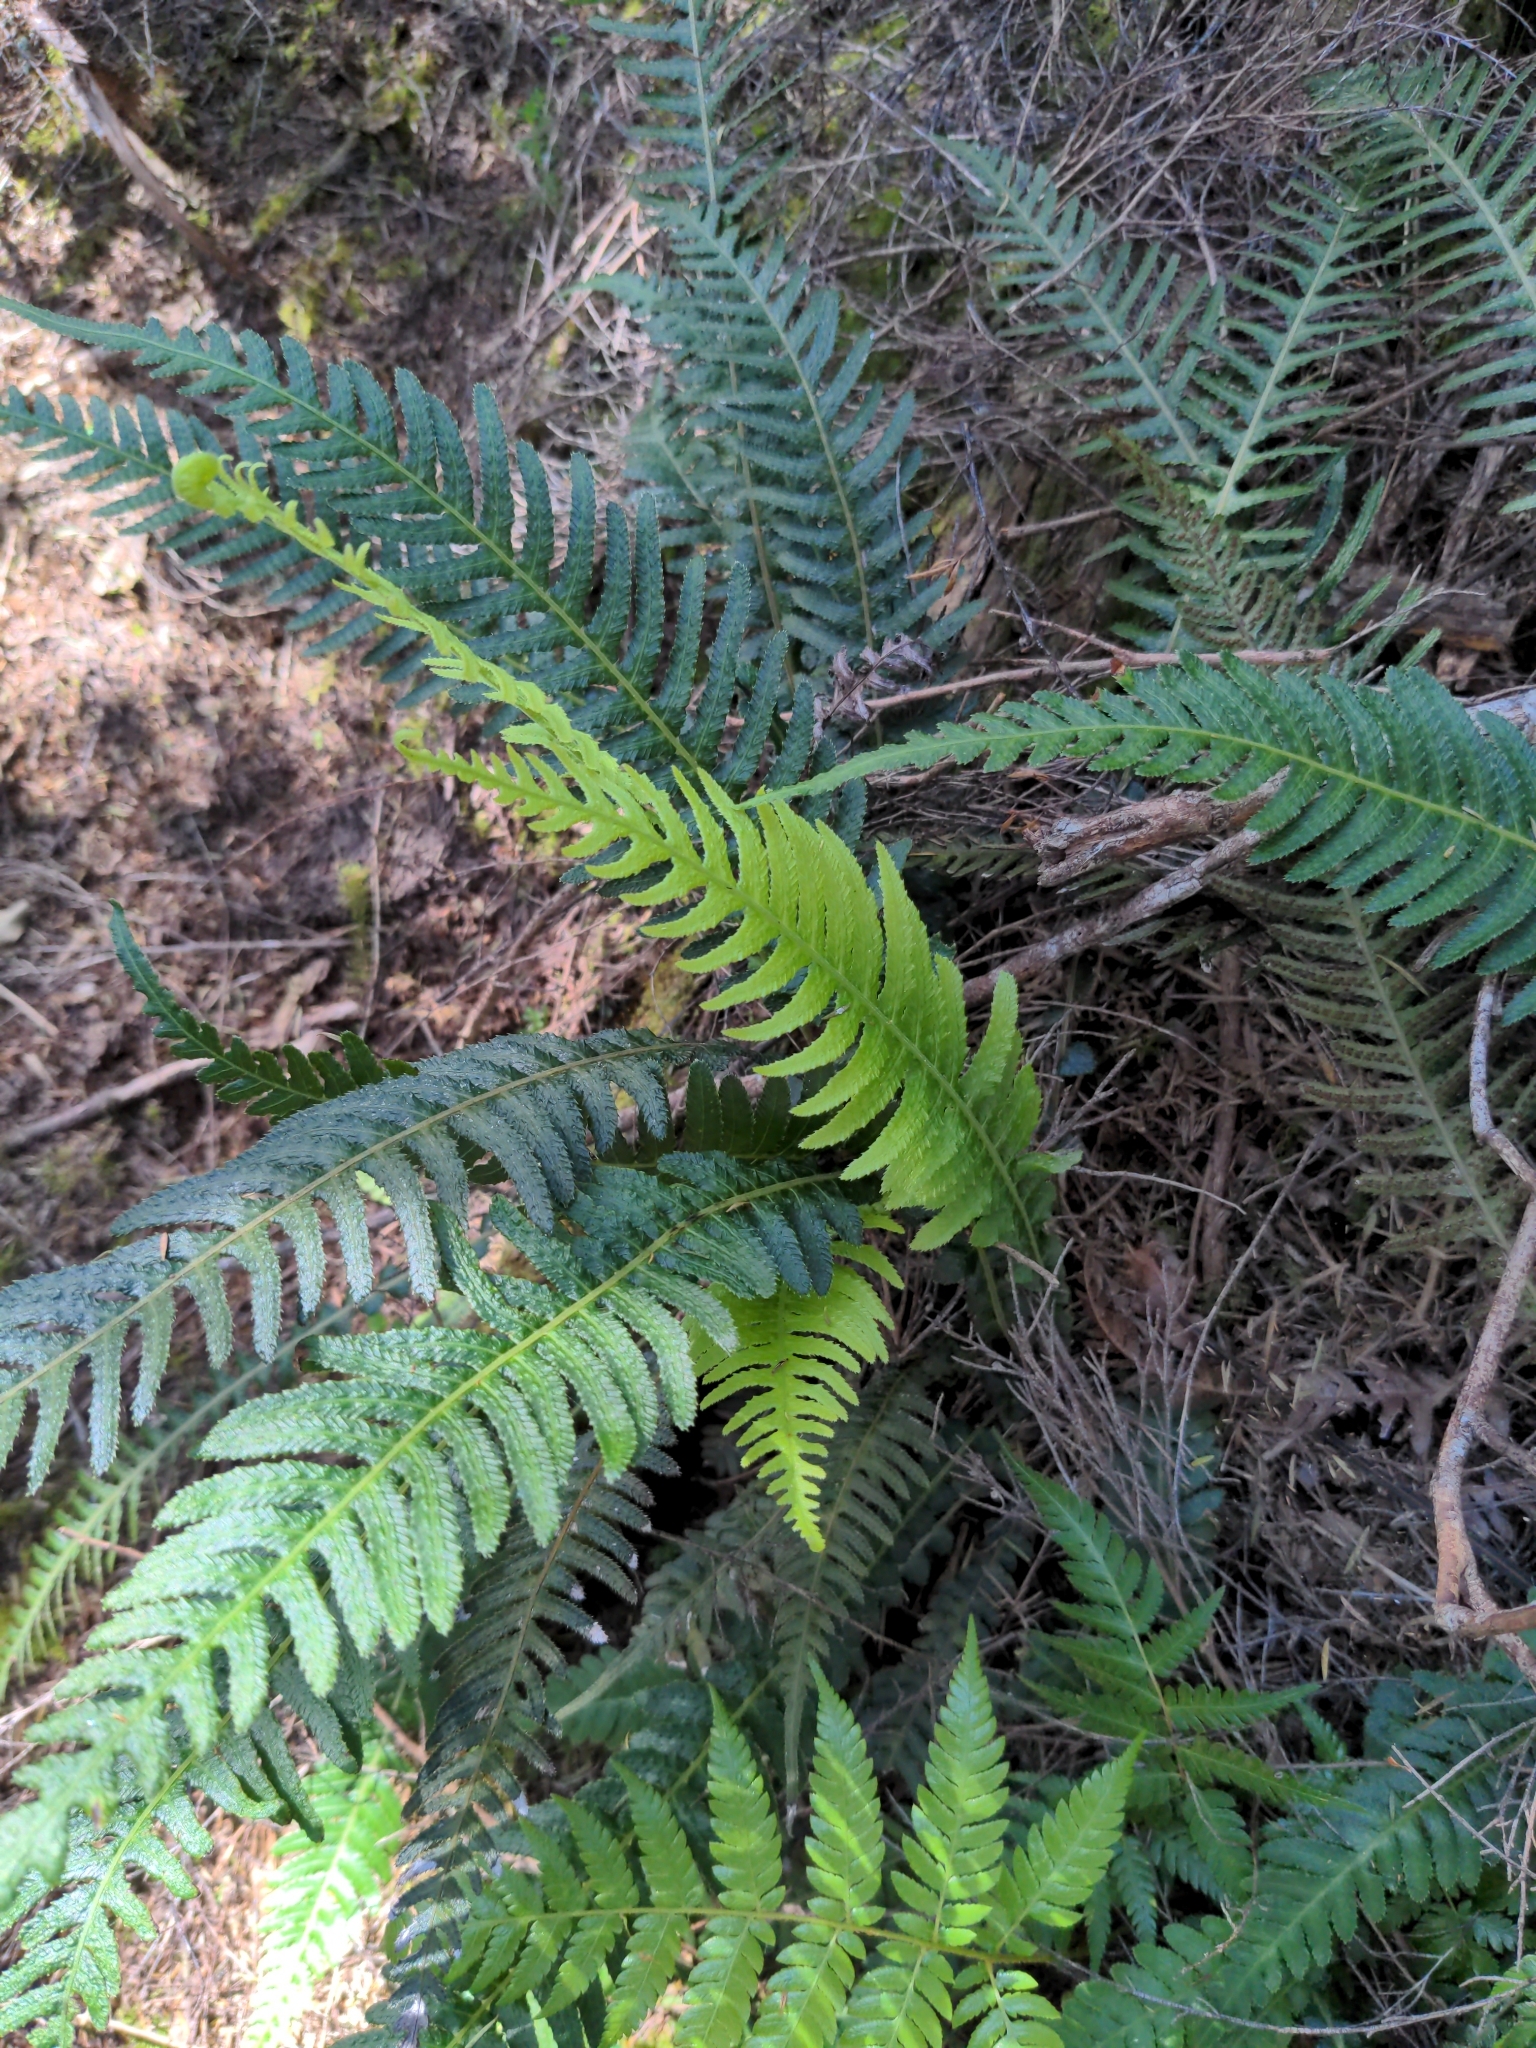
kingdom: Plantae
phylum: Tracheophyta
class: Polypodiopsida
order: Polypodiales
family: Blechnaceae
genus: Doodia
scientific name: Doodia australis
